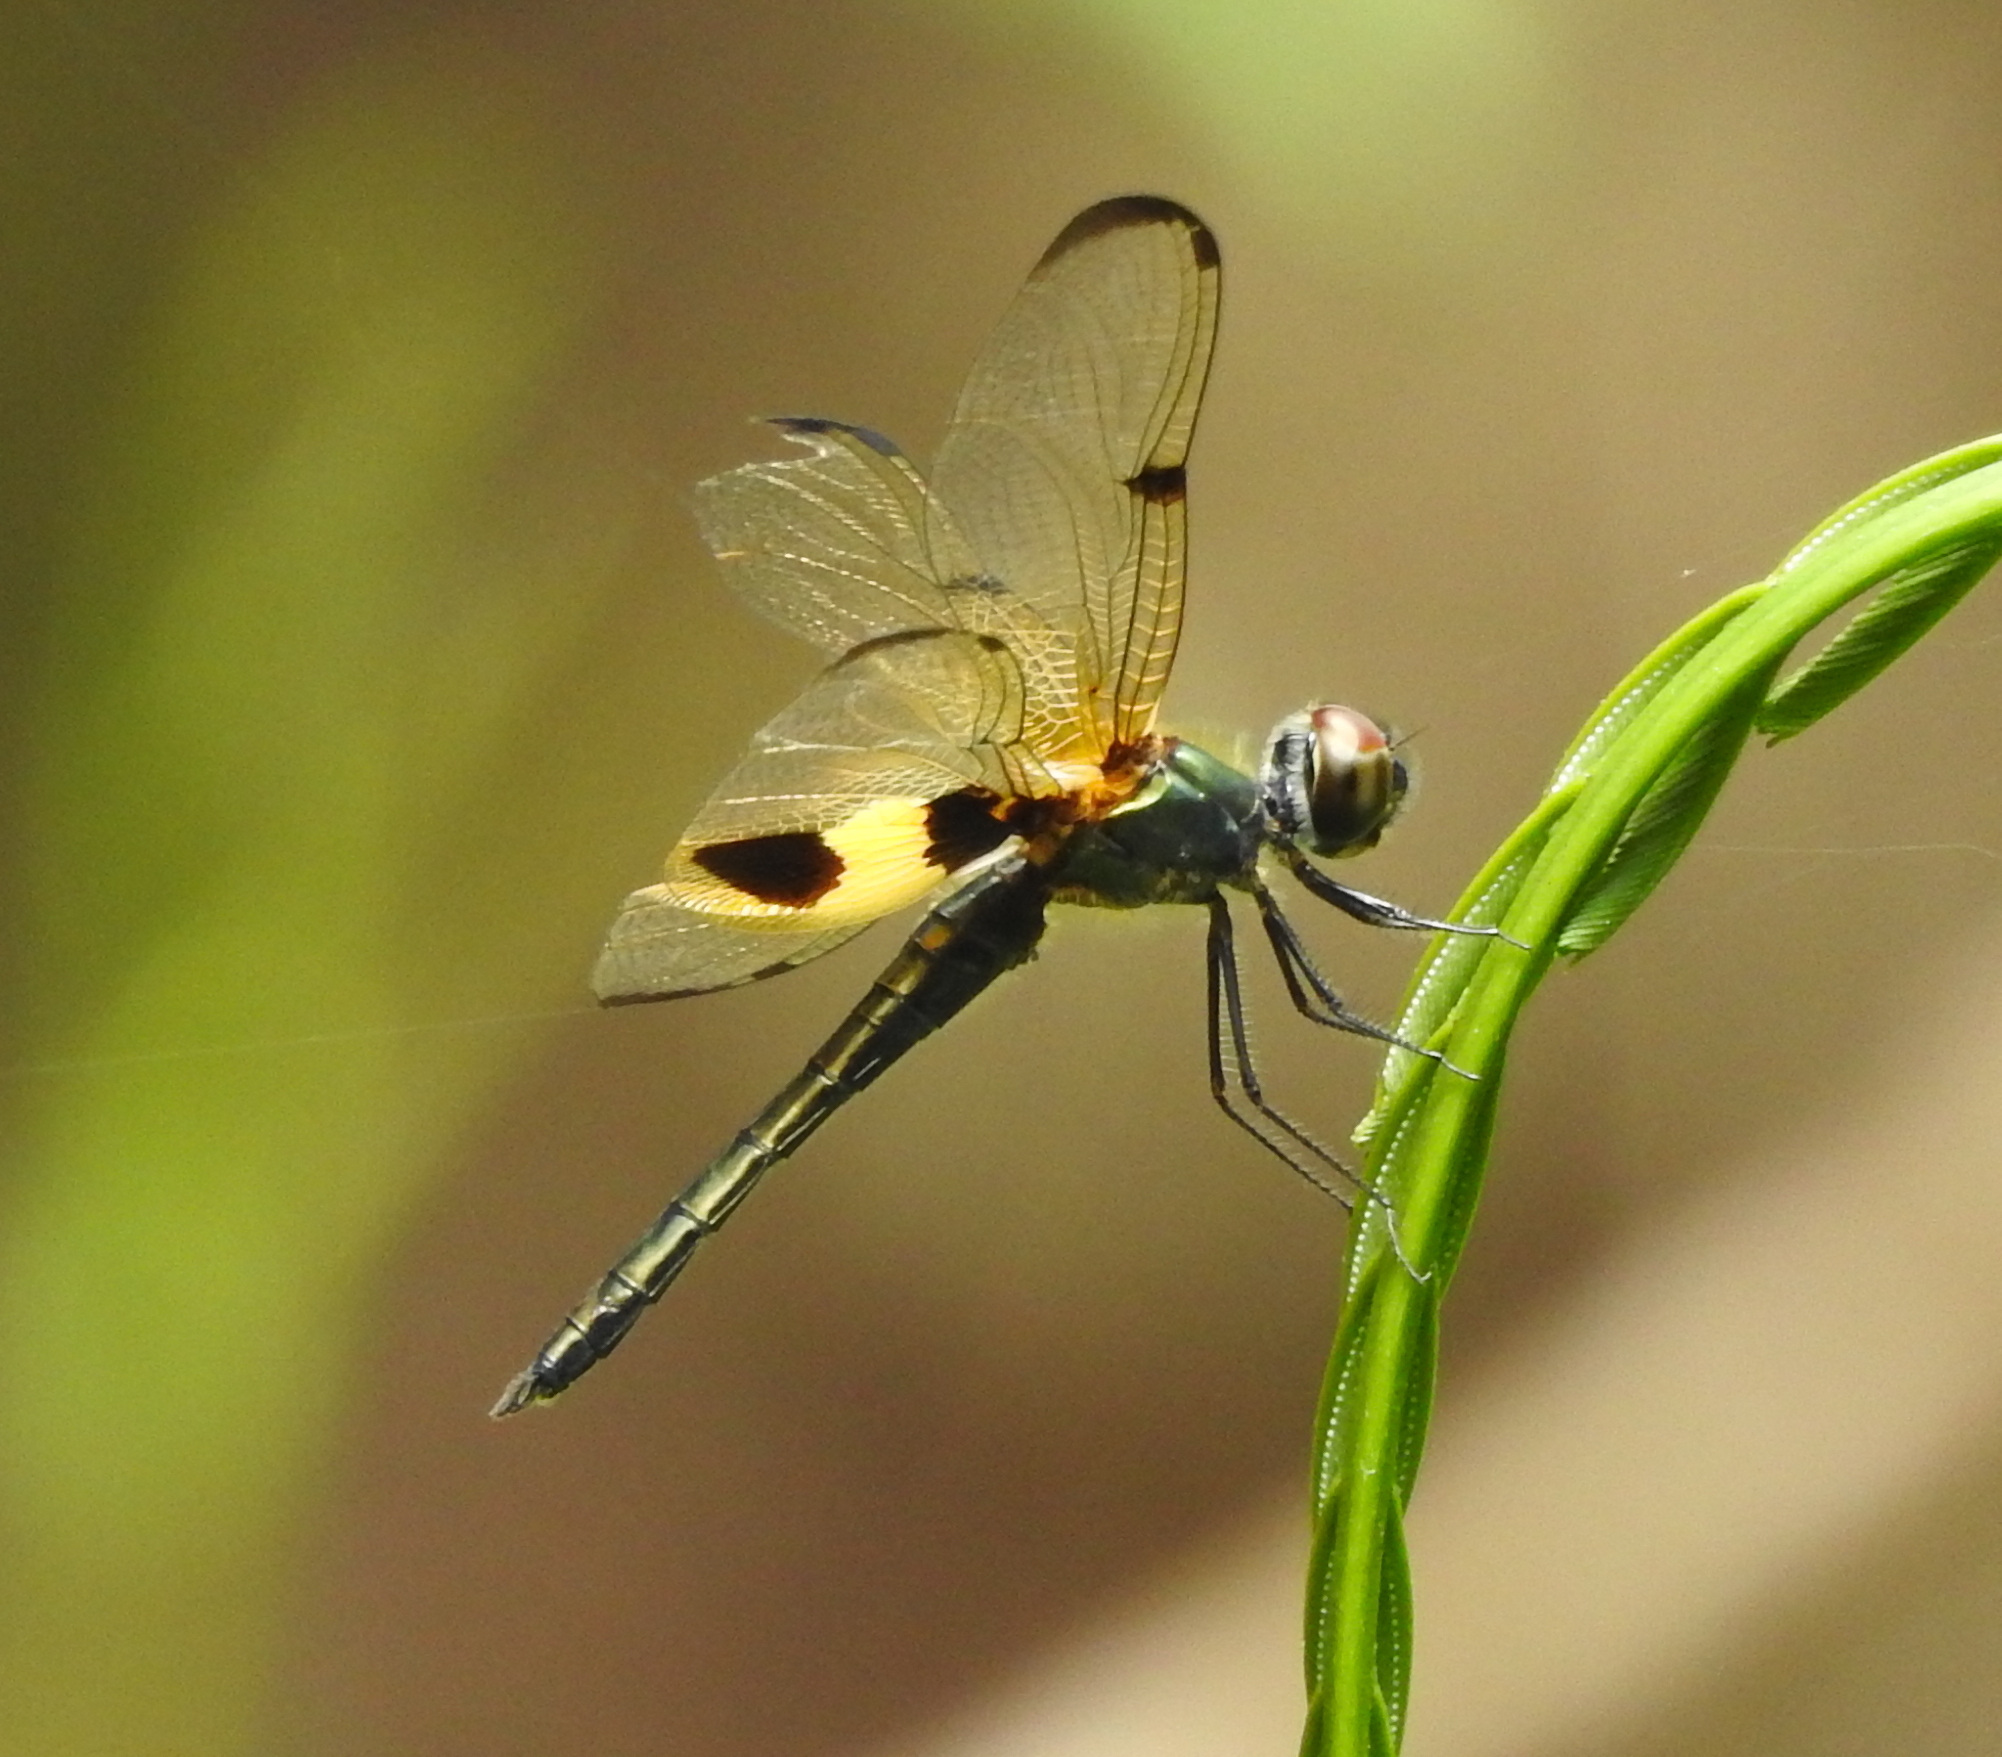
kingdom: Animalia
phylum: Arthropoda
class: Insecta
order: Odonata
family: Libellulidae
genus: Rhyothemis
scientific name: Rhyothemis phyllis
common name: Yellow-barred flutterer
